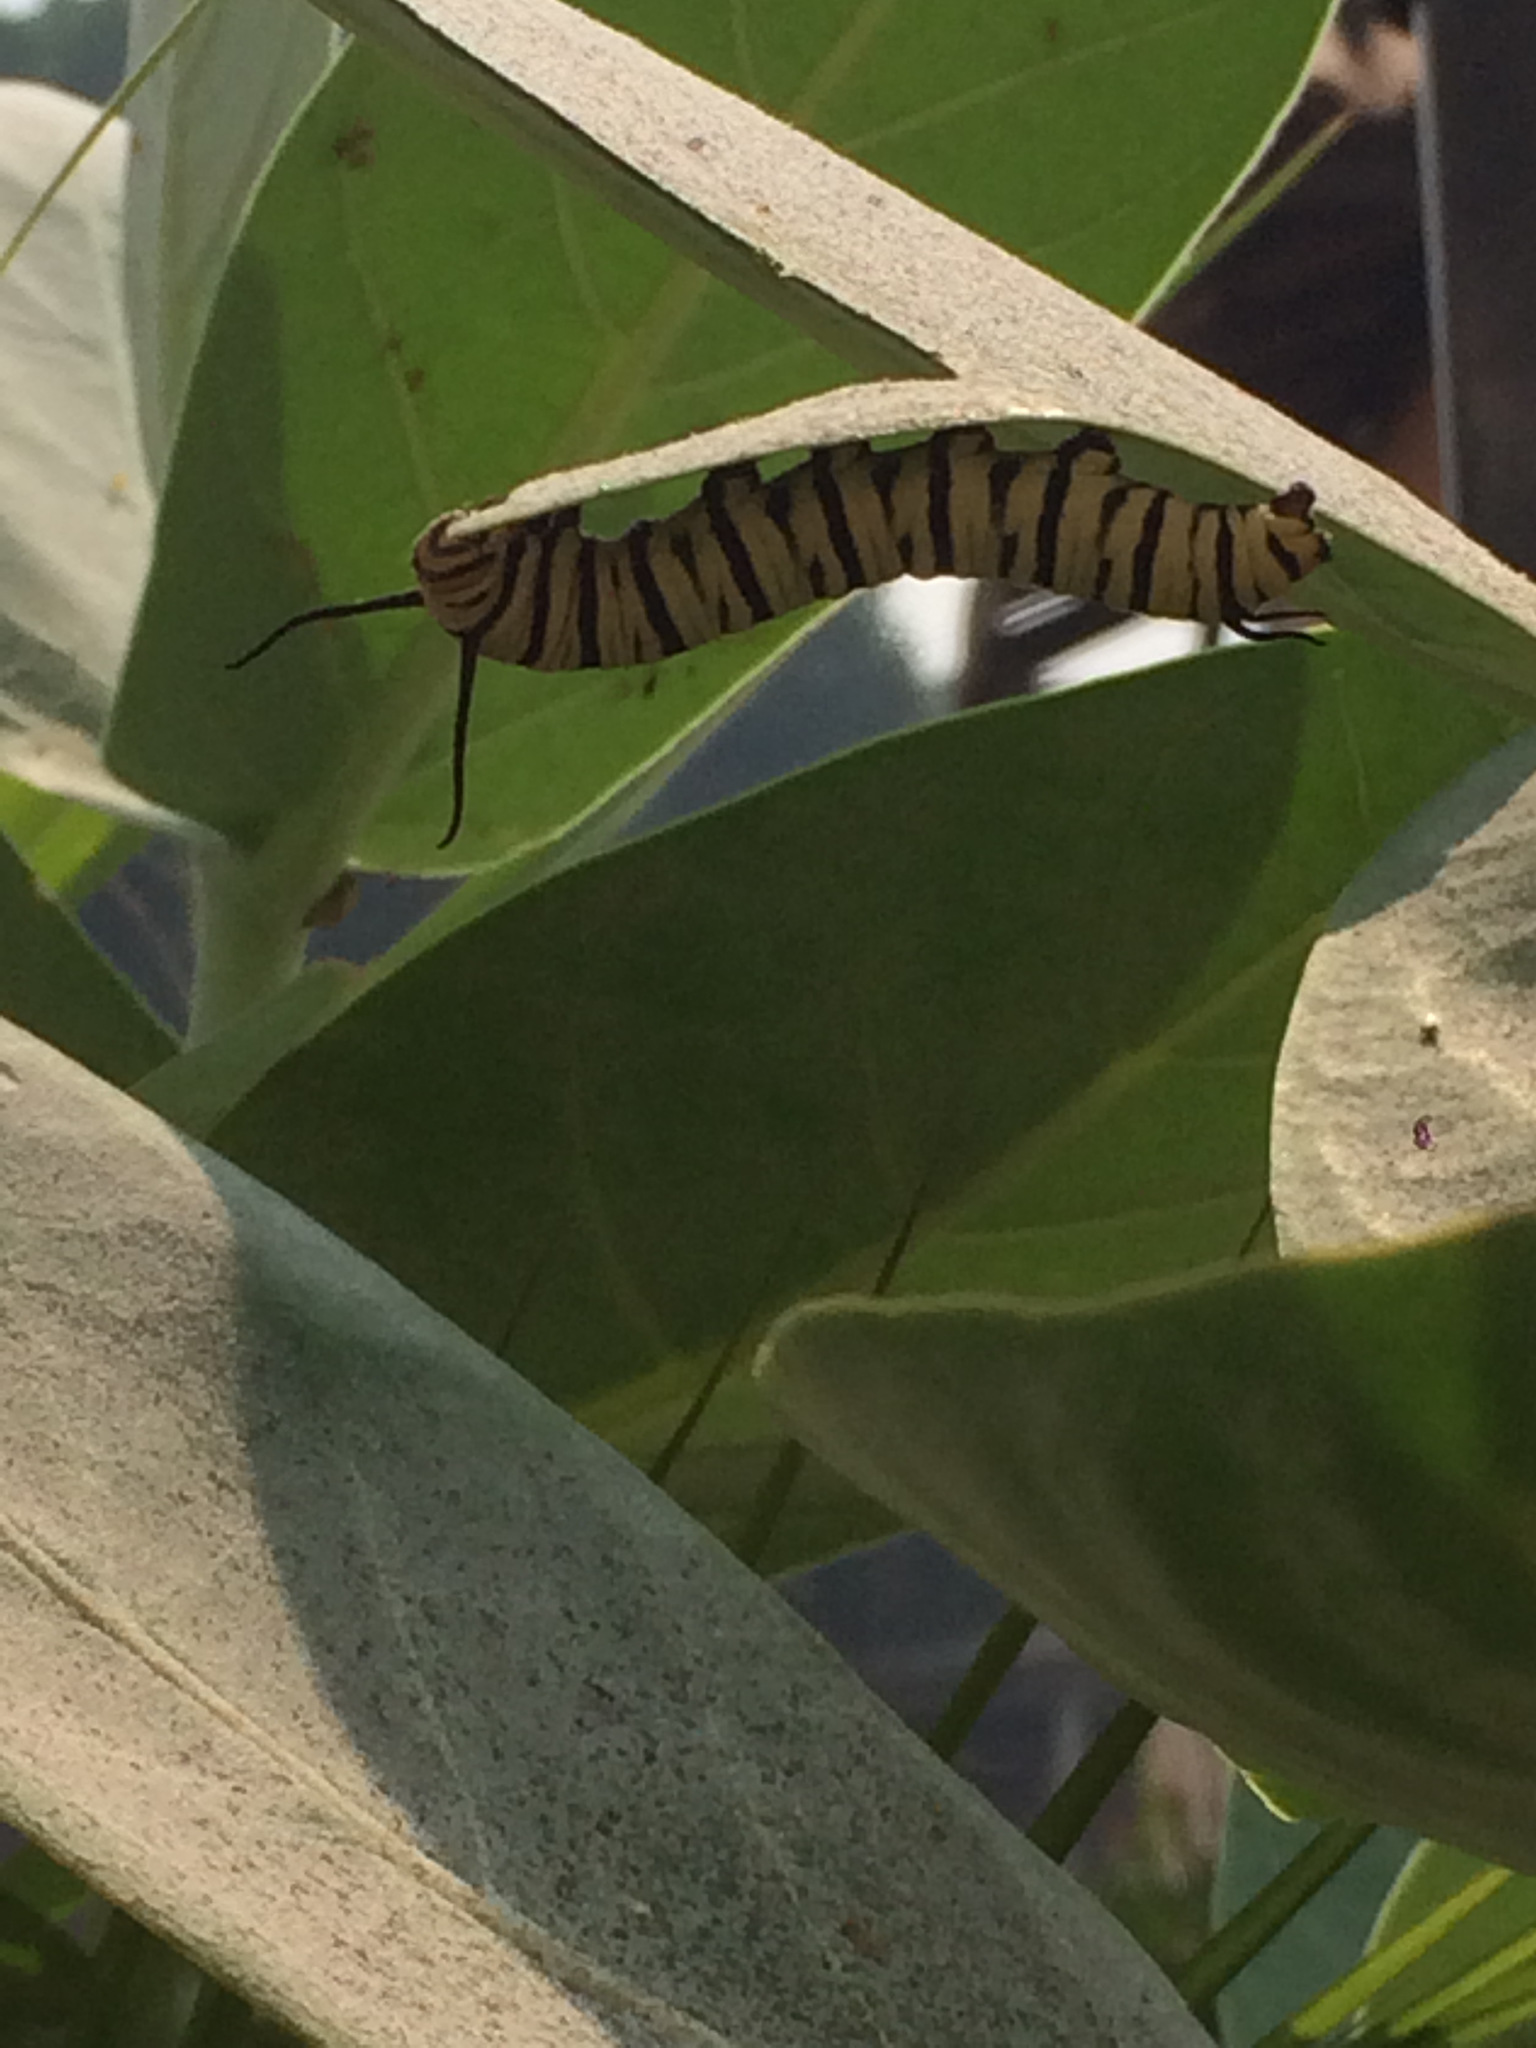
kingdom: Animalia
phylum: Arthropoda
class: Insecta
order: Lepidoptera
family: Nymphalidae
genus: Danaus
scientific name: Danaus erippus
